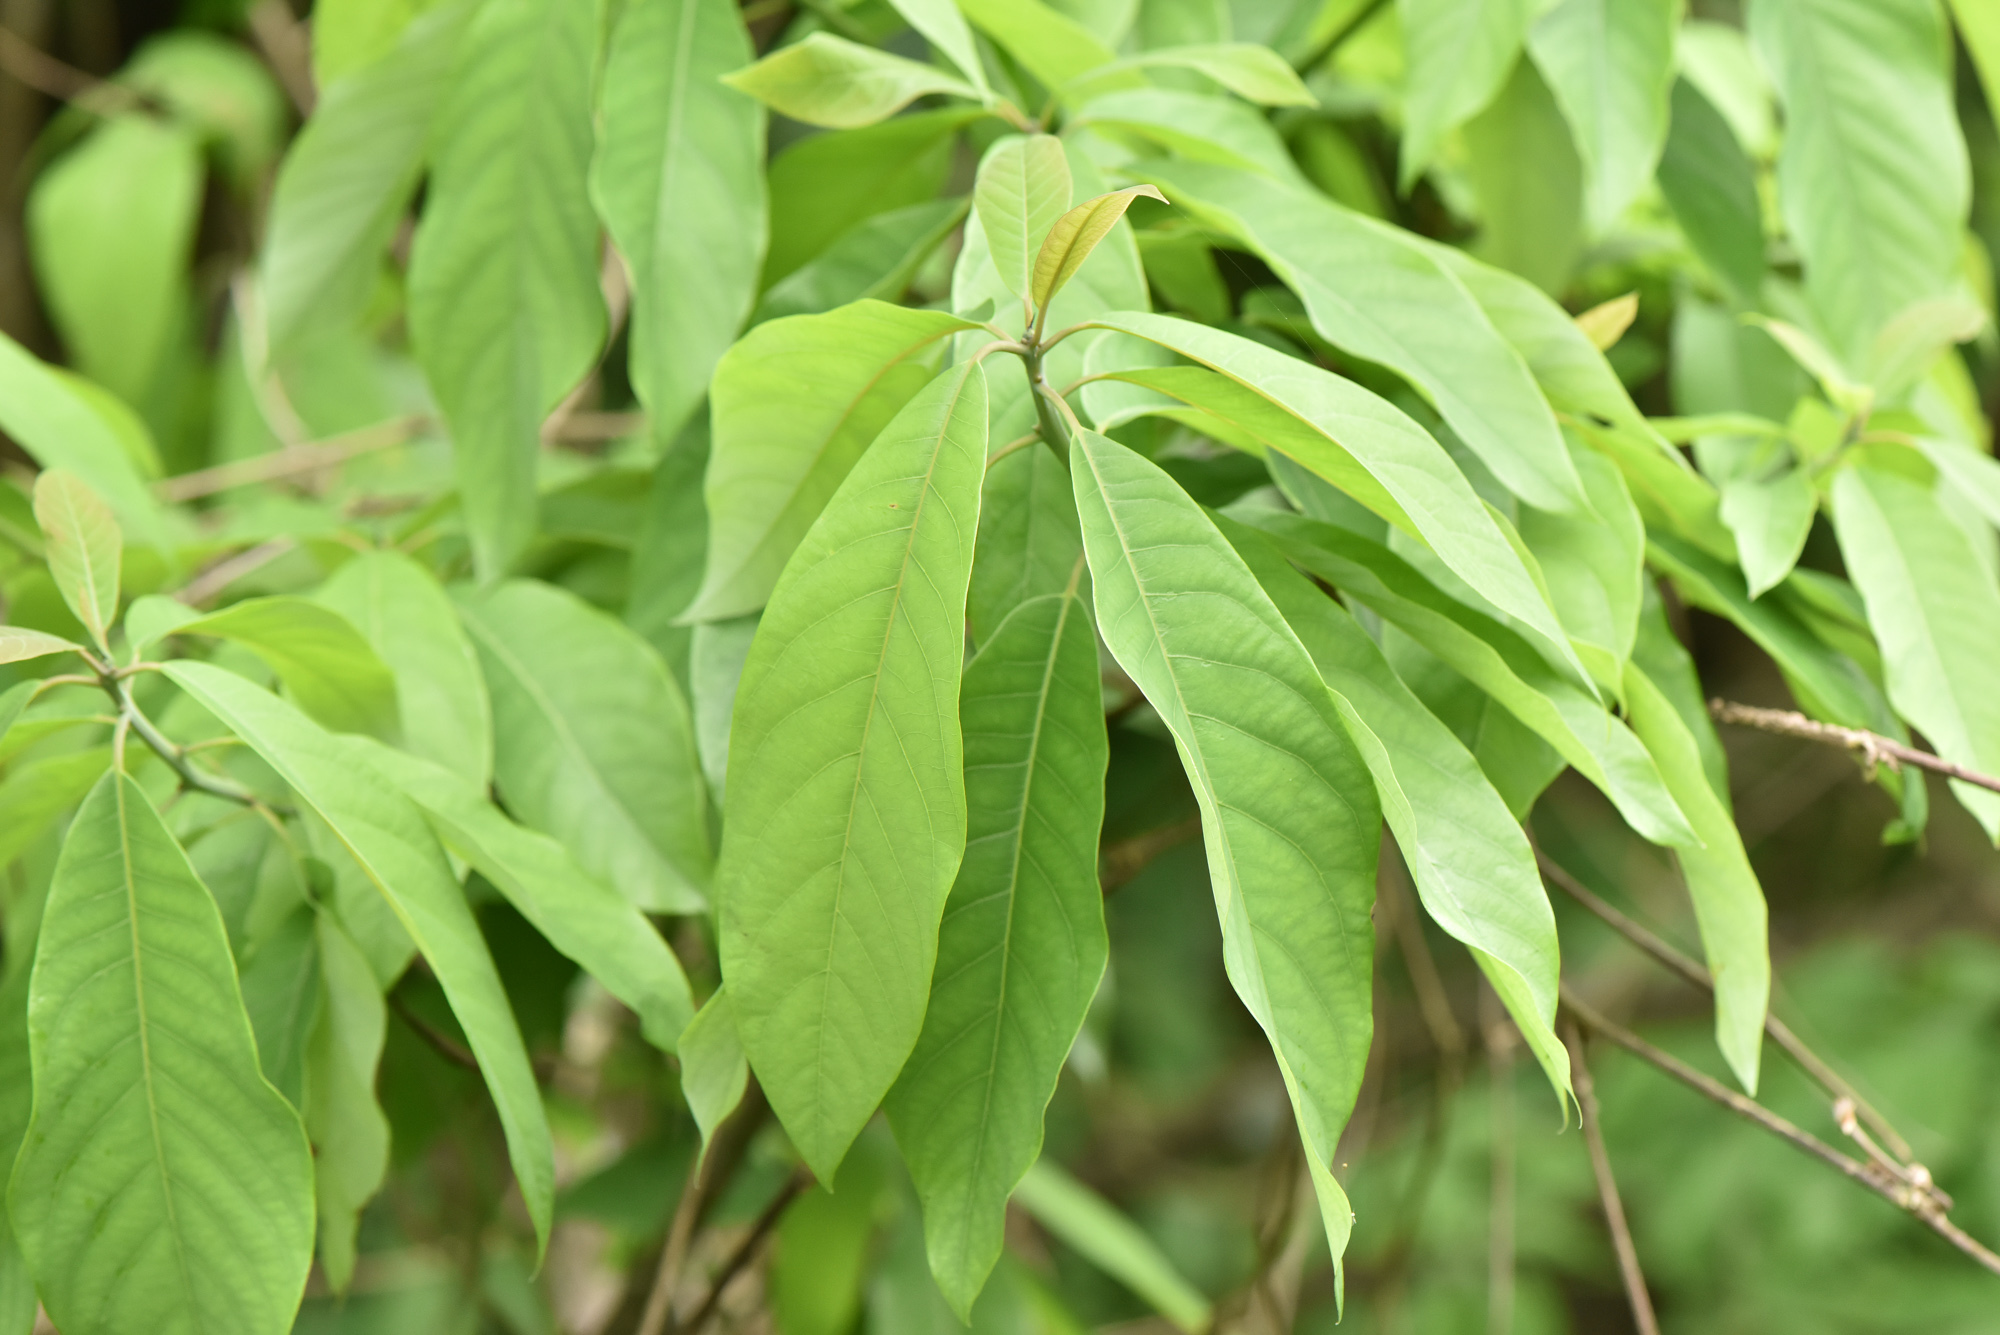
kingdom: Plantae
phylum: Tracheophyta
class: Magnoliopsida
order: Laurales
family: Lauraceae
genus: Litsea
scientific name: Litsea akoensis
